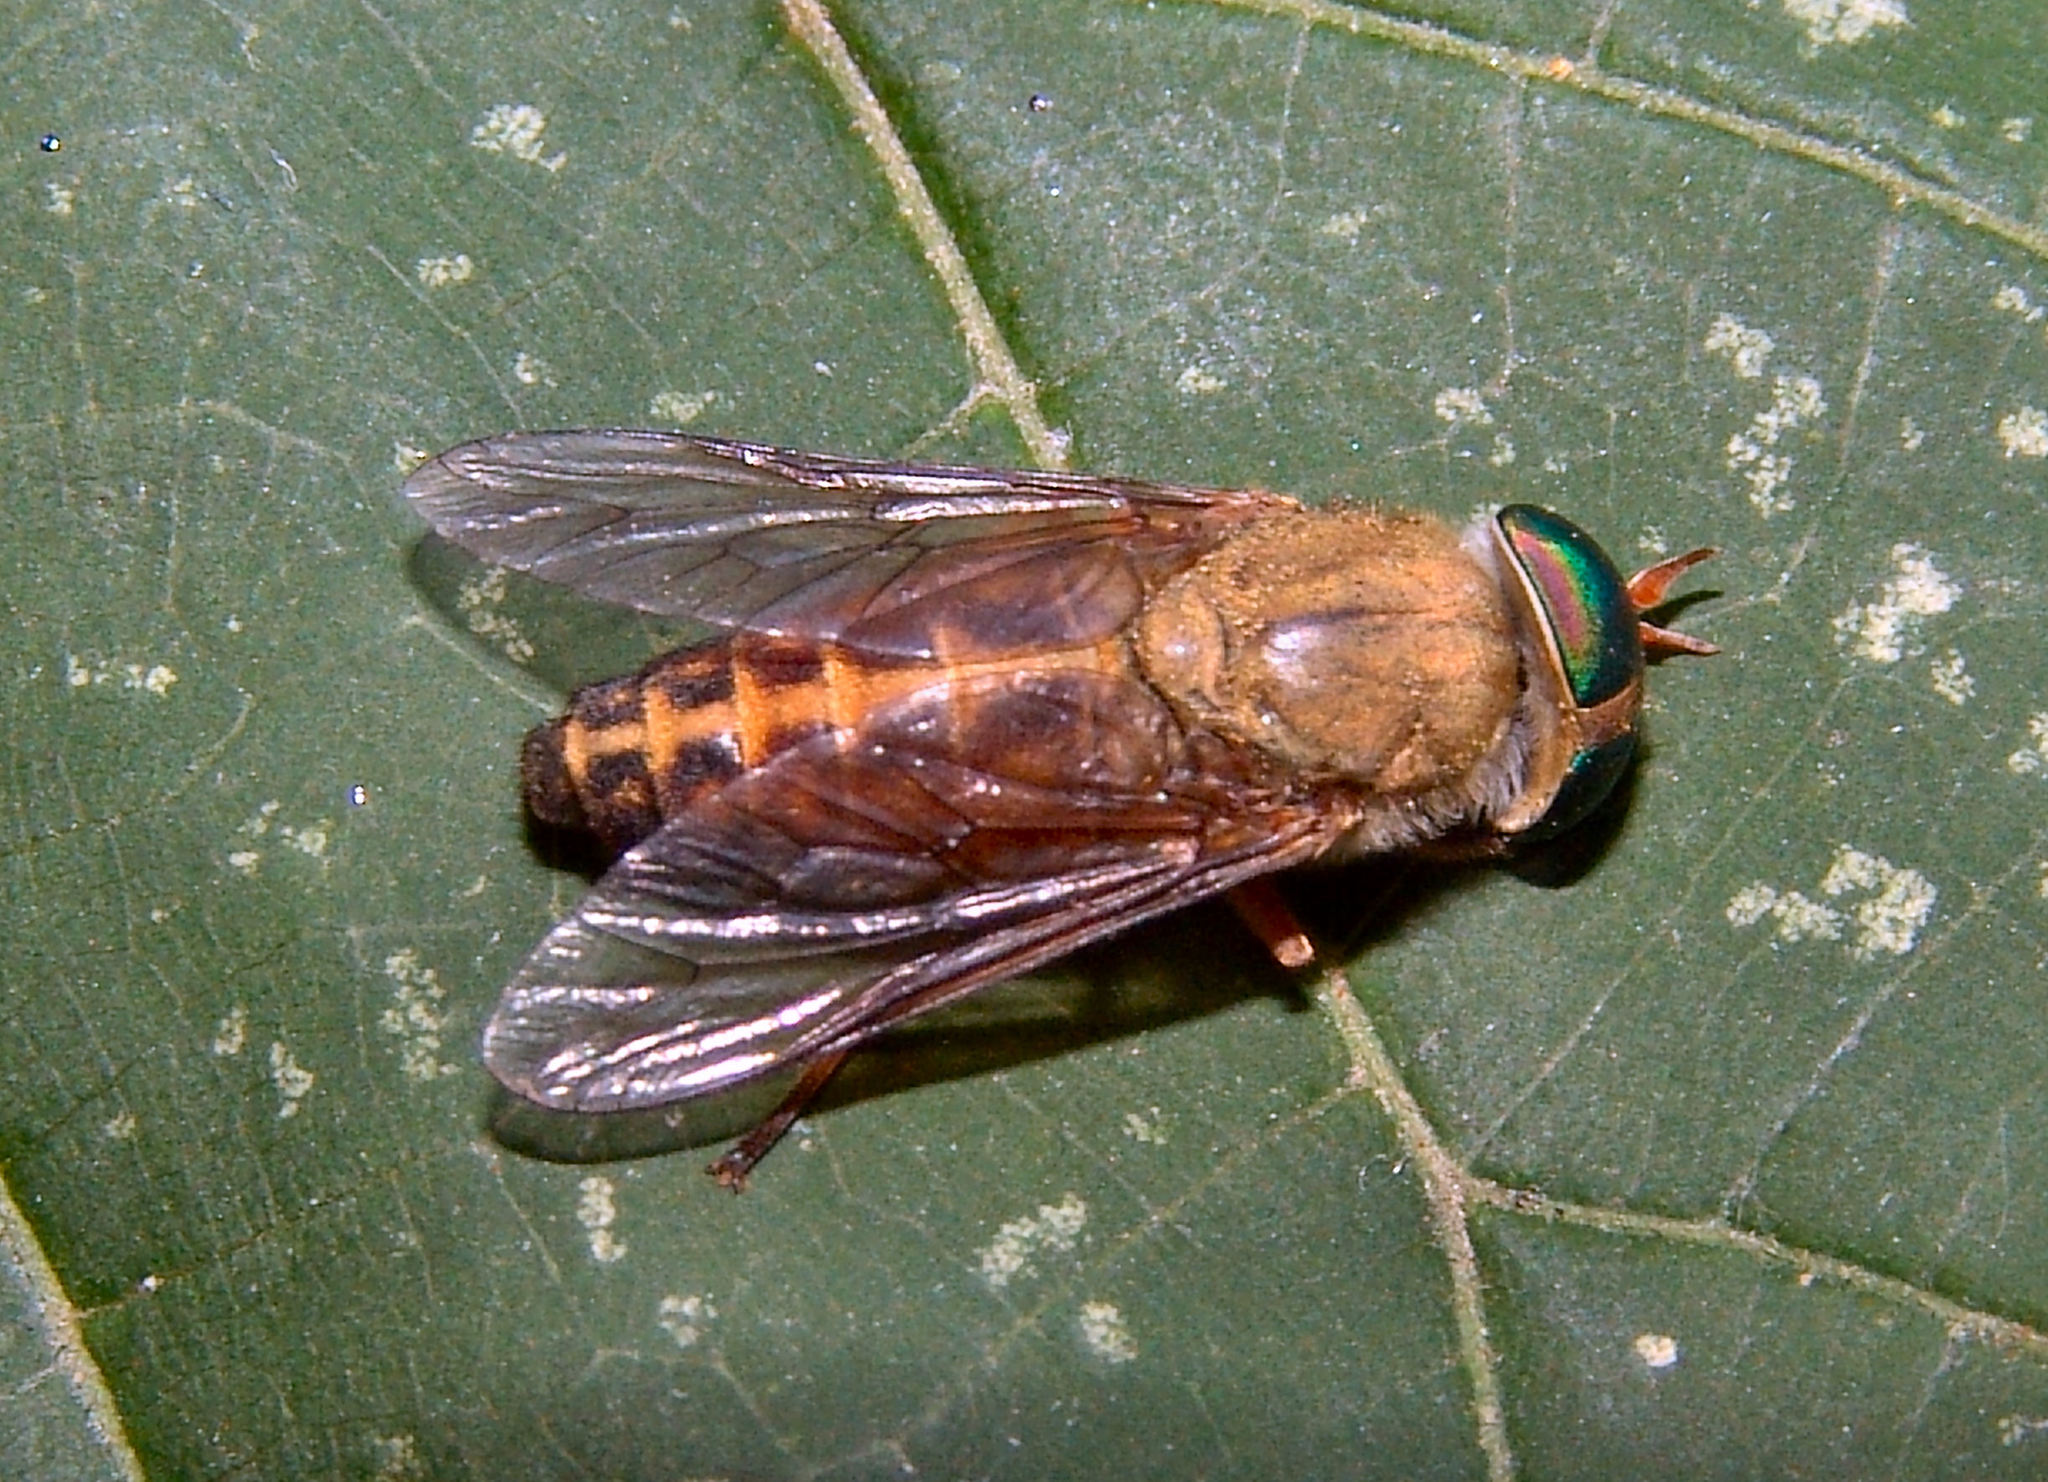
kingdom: Animalia
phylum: Arthropoda
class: Insecta
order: Diptera
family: Tabanidae
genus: Tabanus
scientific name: Tabanus pallidescens
